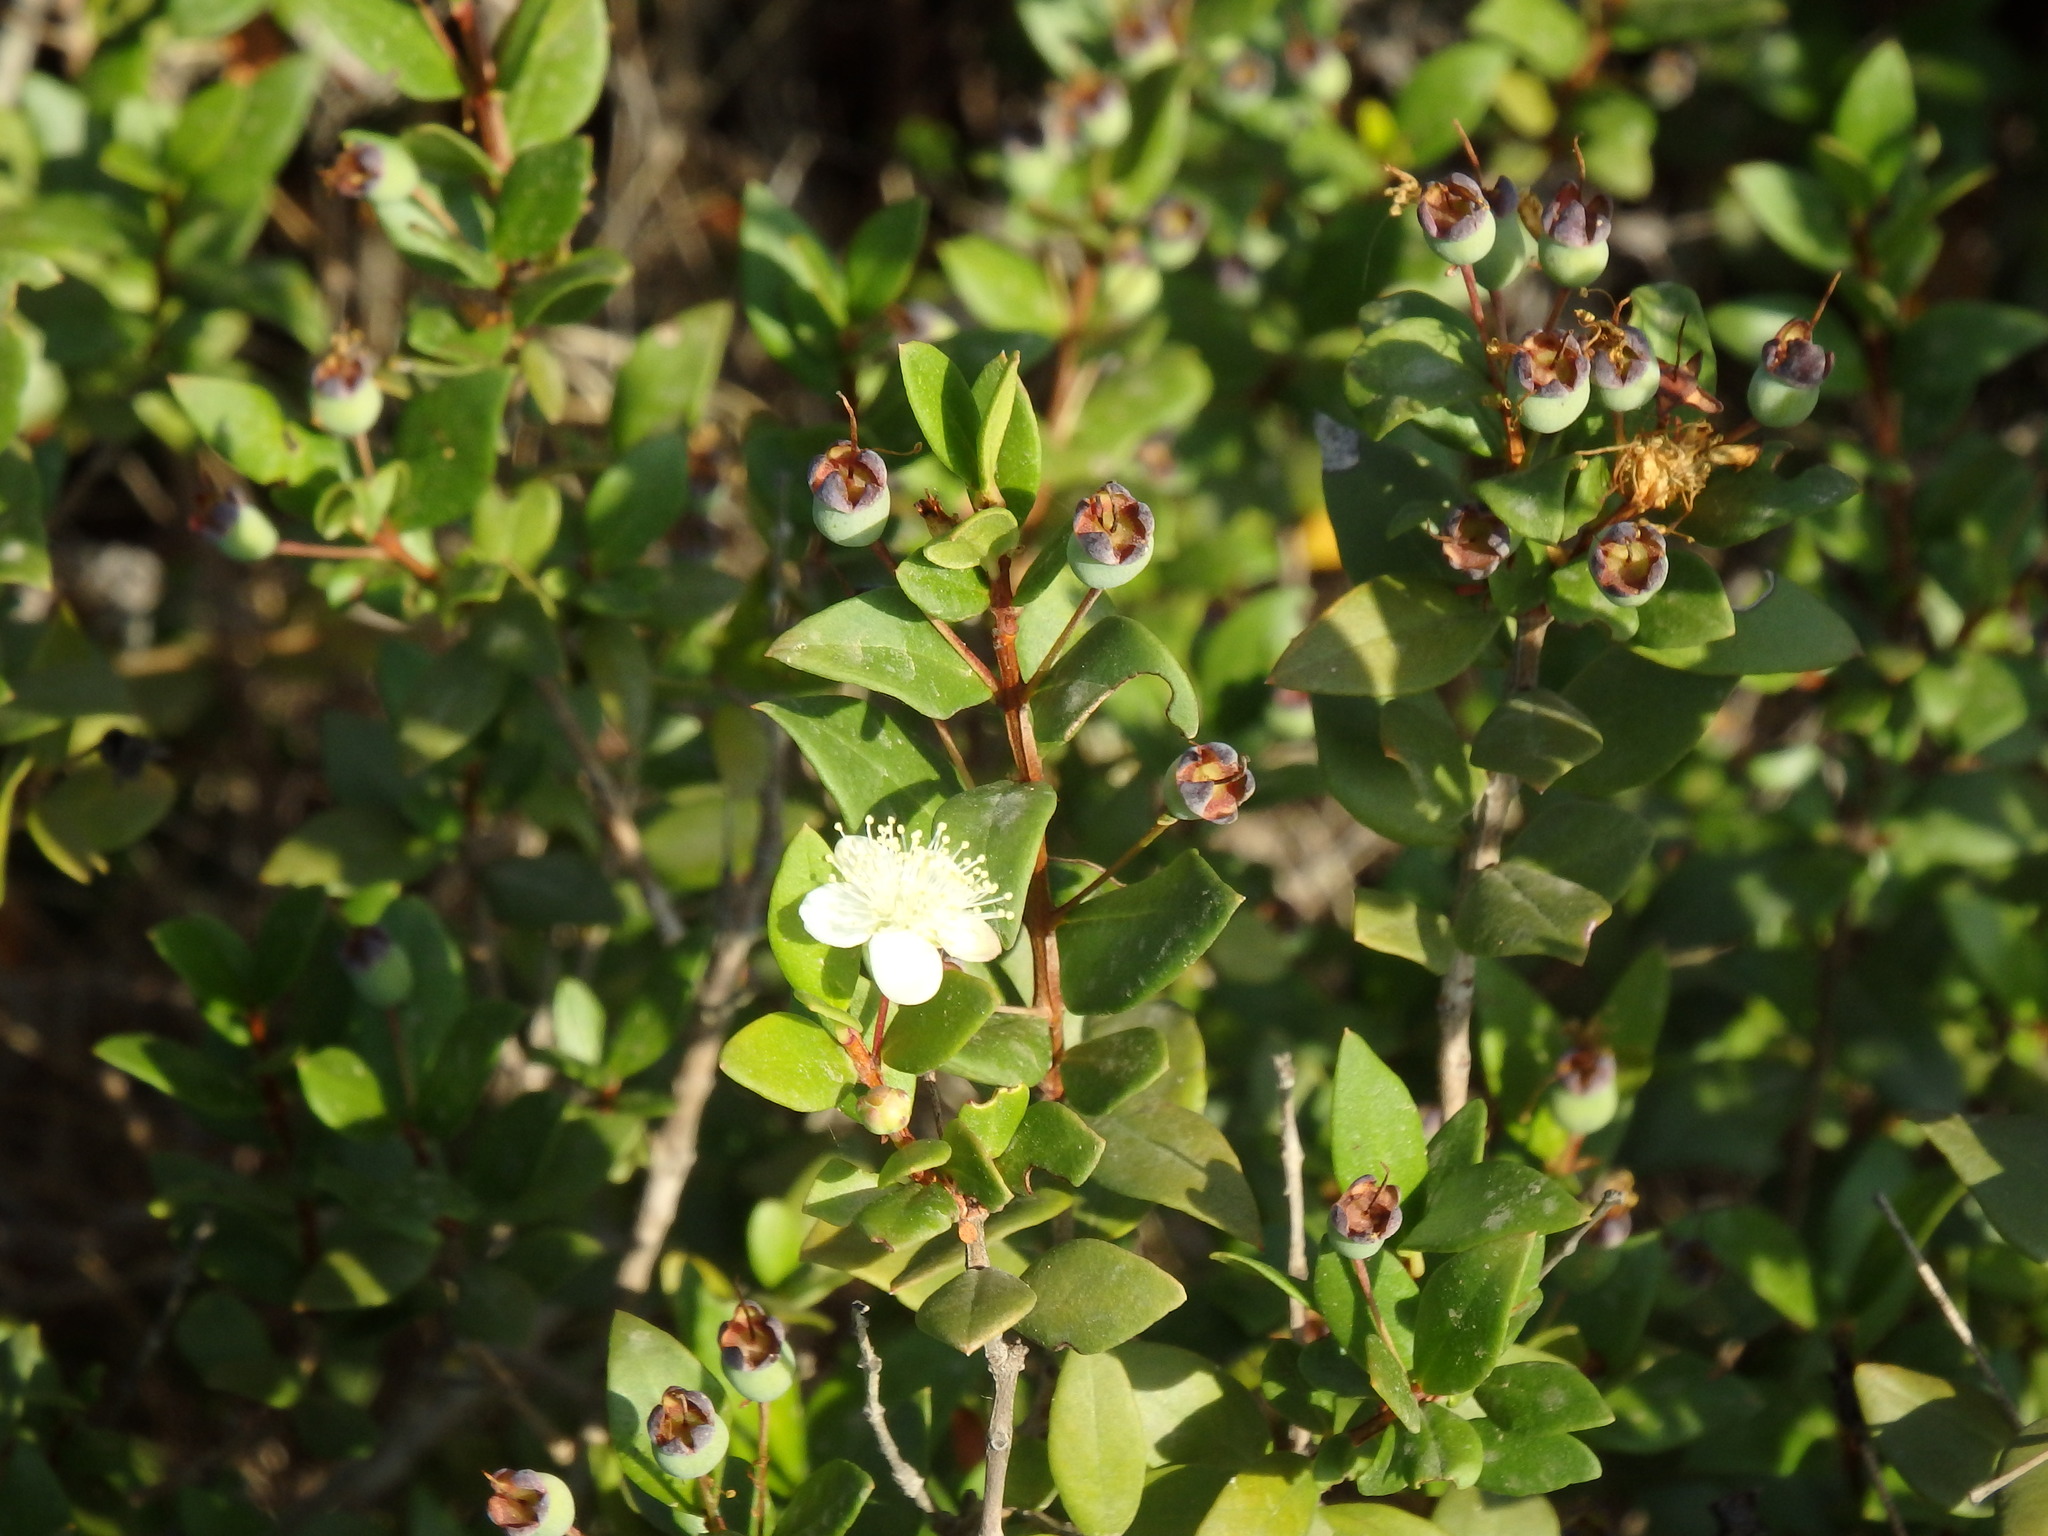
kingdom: Plantae
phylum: Tracheophyta
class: Magnoliopsida
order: Myrtales
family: Myrtaceae
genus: Myrtus
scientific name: Myrtus communis
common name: Myrtle
